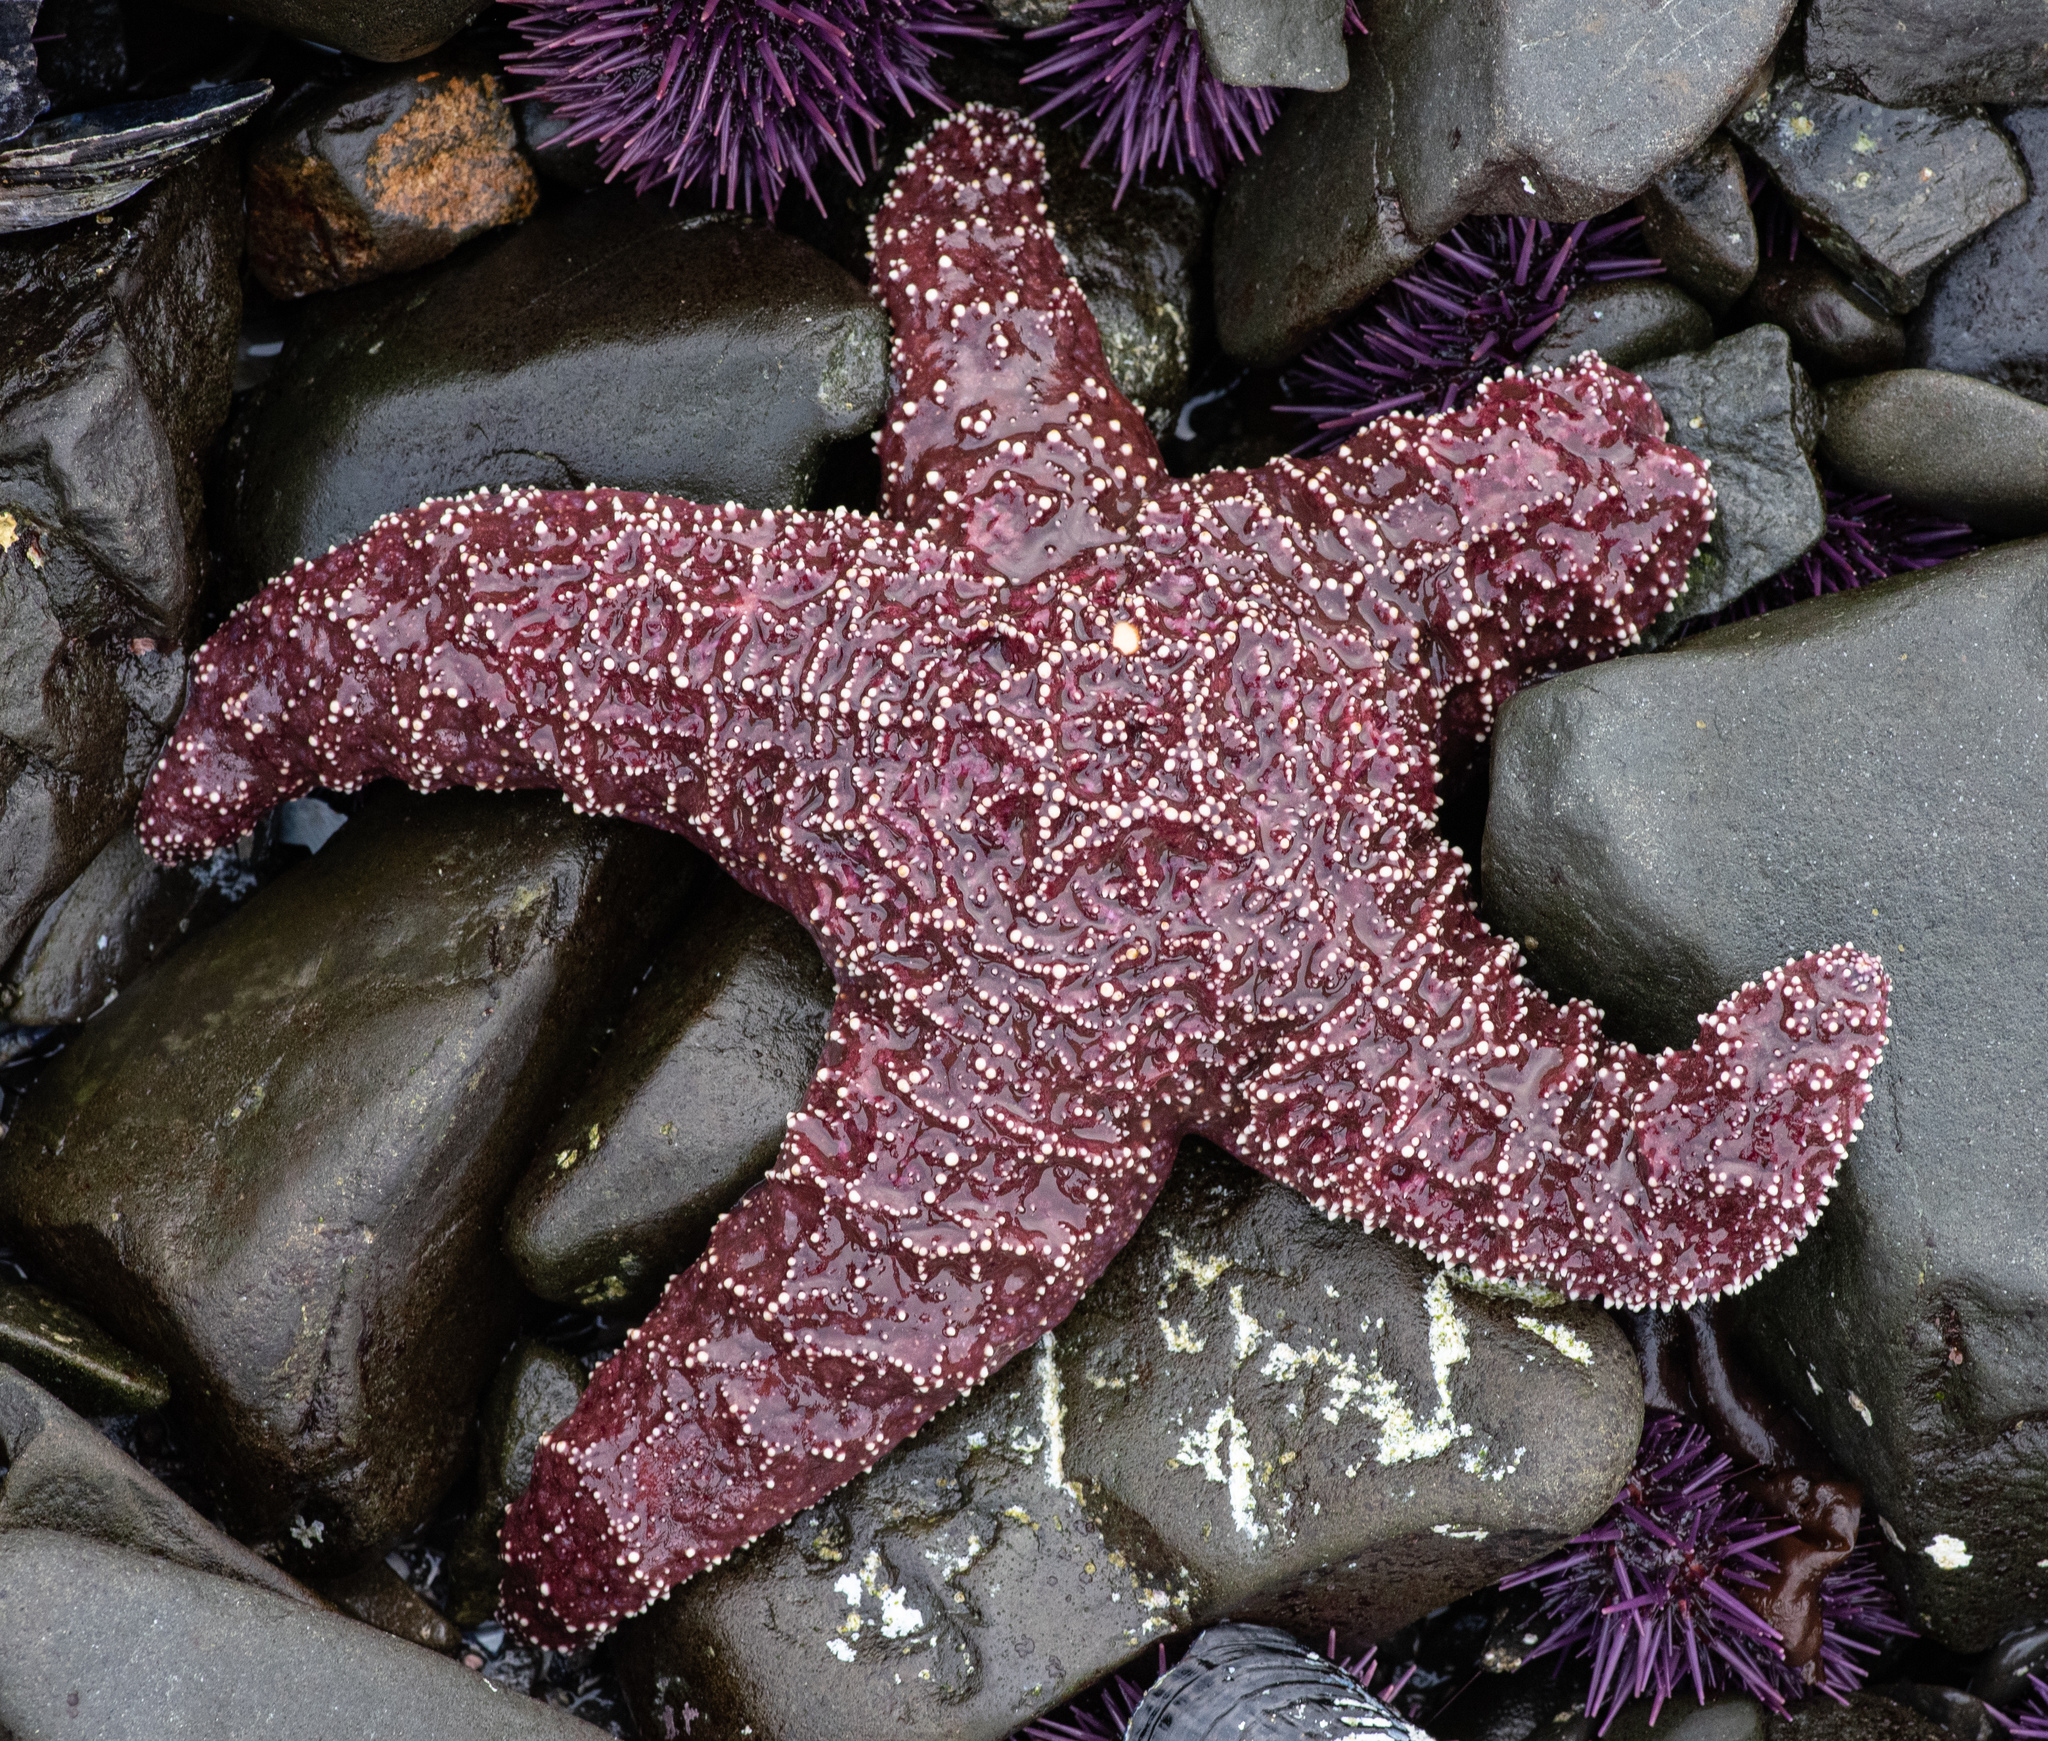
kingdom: Animalia
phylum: Echinodermata
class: Asteroidea
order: Forcipulatida
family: Asteriidae
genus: Pisaster
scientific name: Pisaster ochraceus
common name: Ochre stars
